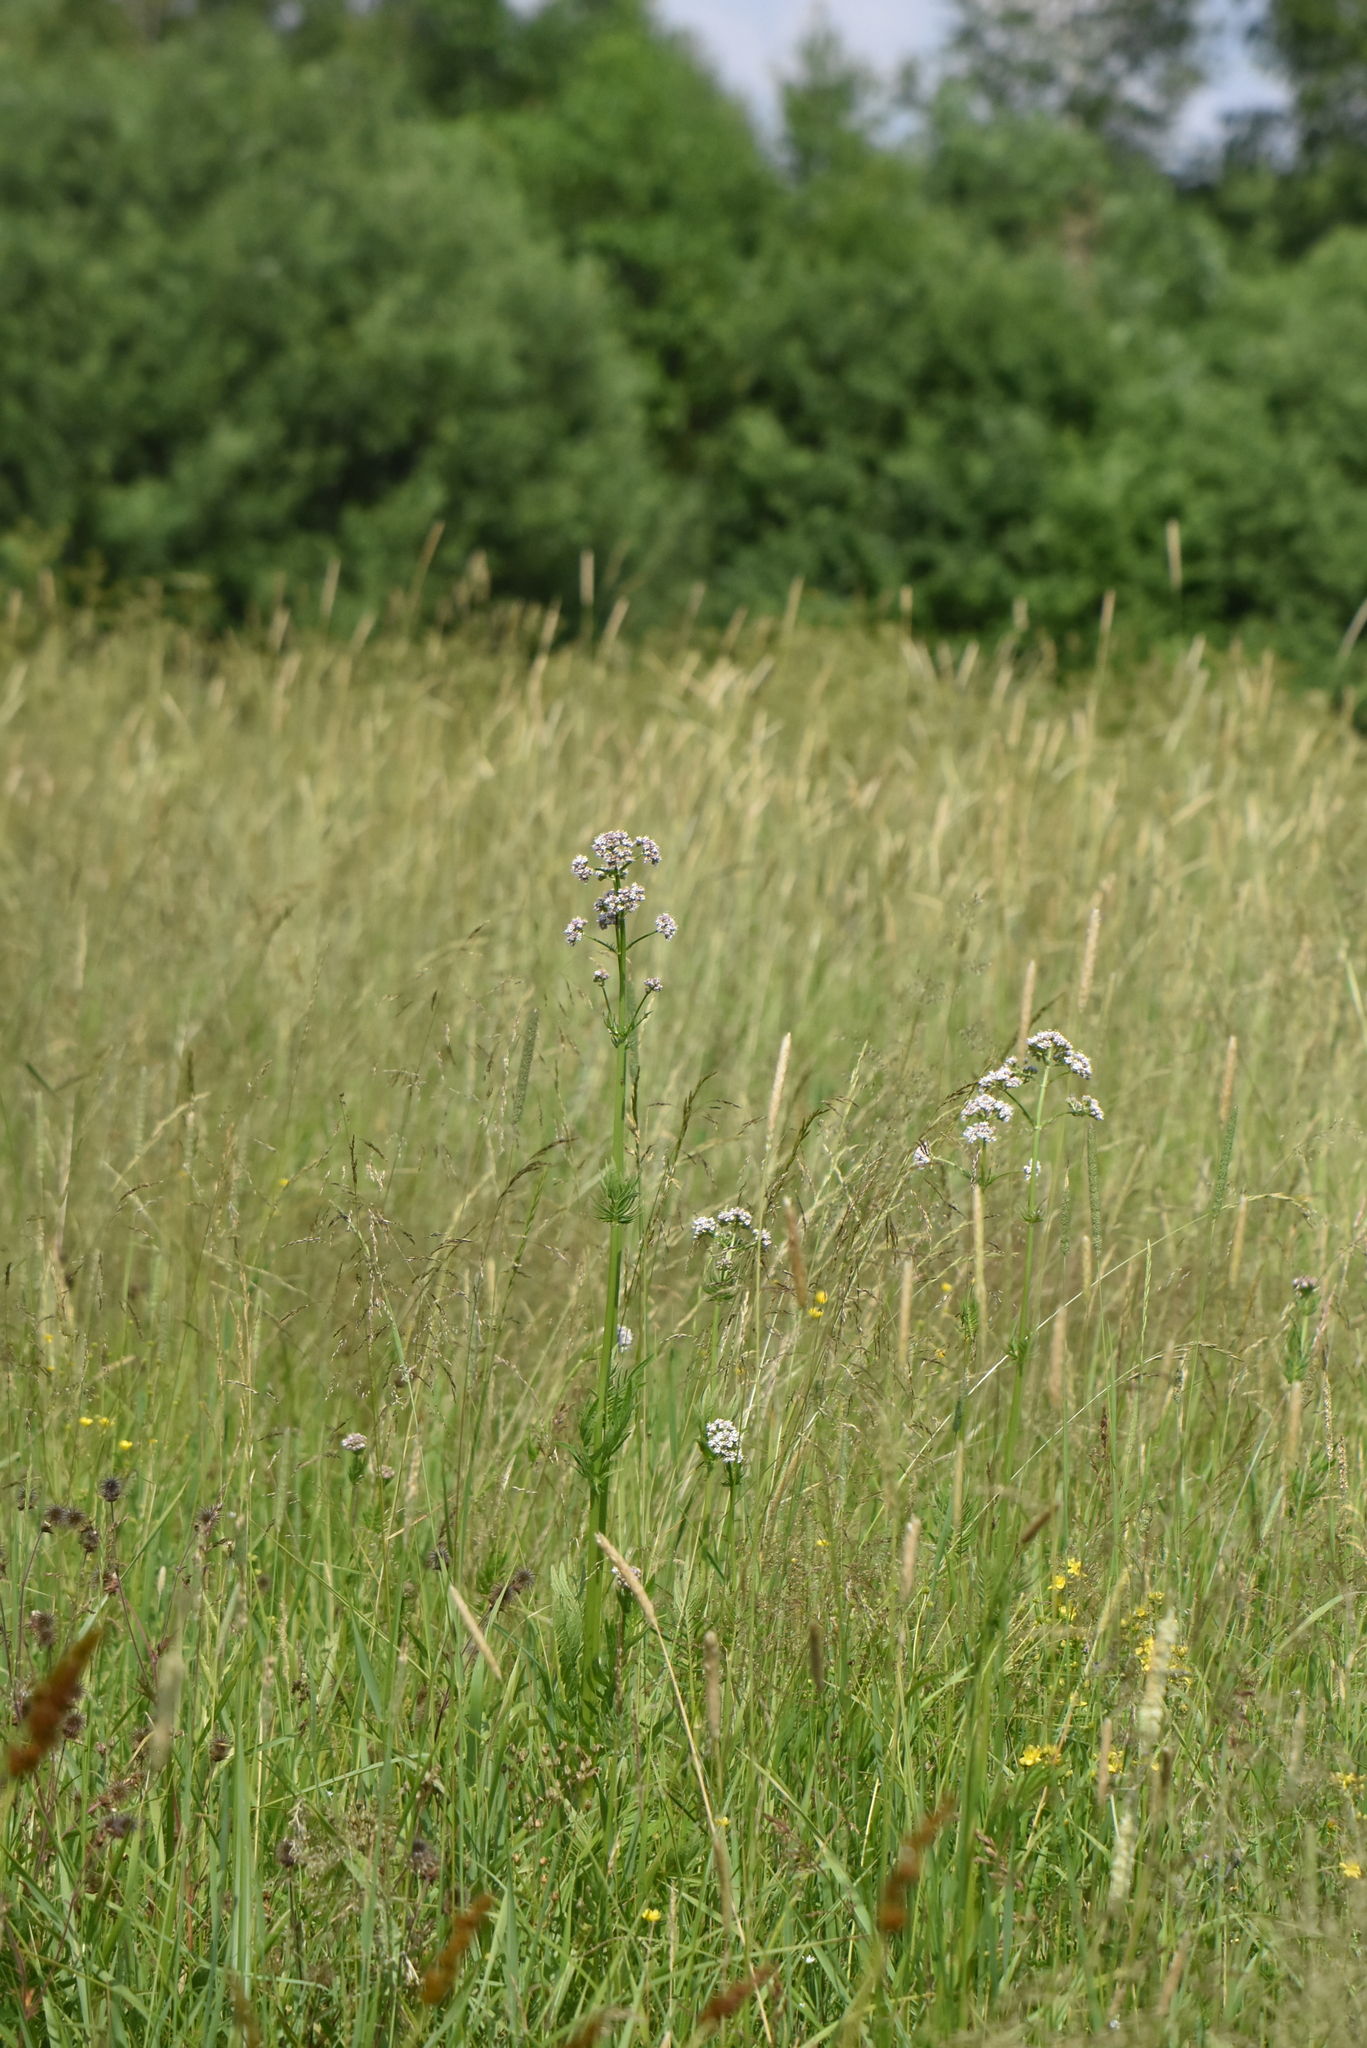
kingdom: Plantae
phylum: Tracheophyta
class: Magnoliopsida
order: Dipsacales
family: Caprifoliaceae
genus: Valeriana
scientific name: Valeriana officinalis
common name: Common valerian
